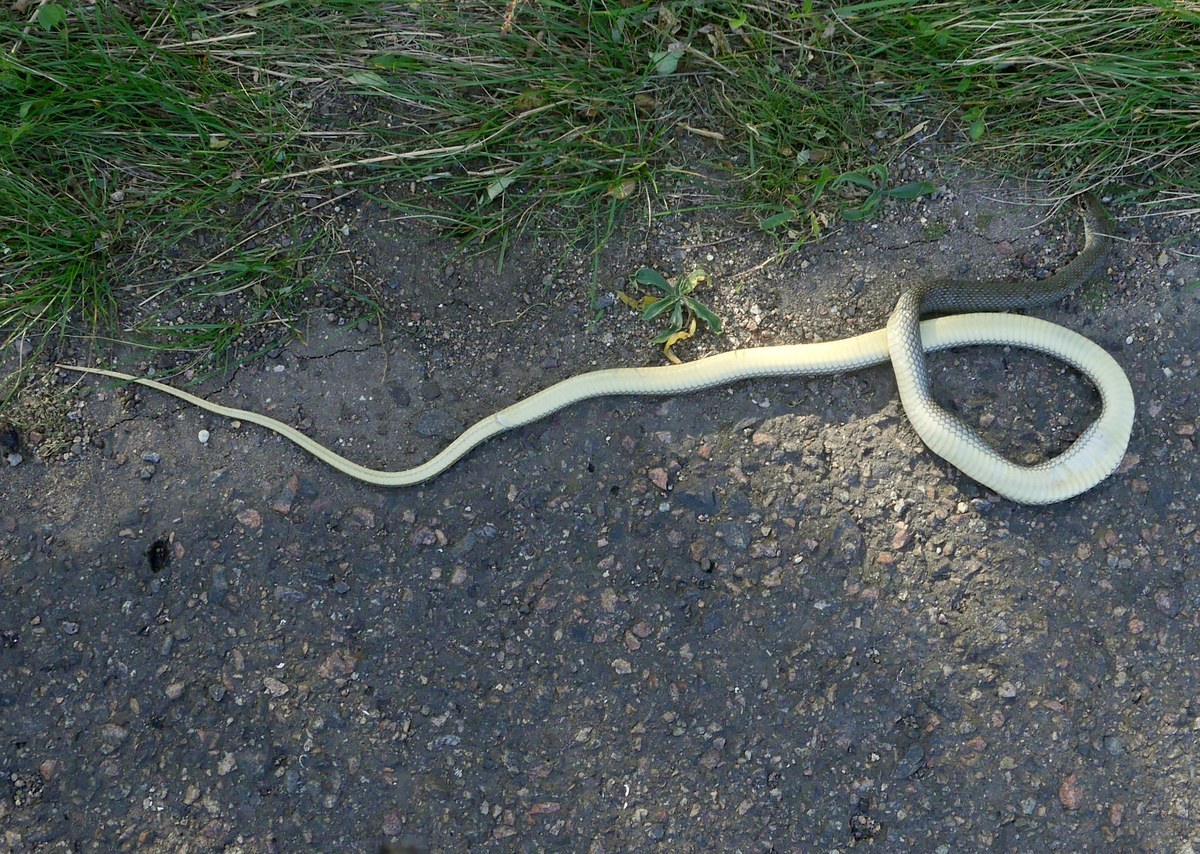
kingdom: Animalia
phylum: Chordata
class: Squamata
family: Colubridae
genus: Dolichophis
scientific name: Dolichophis caspius
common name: Large whip snake
